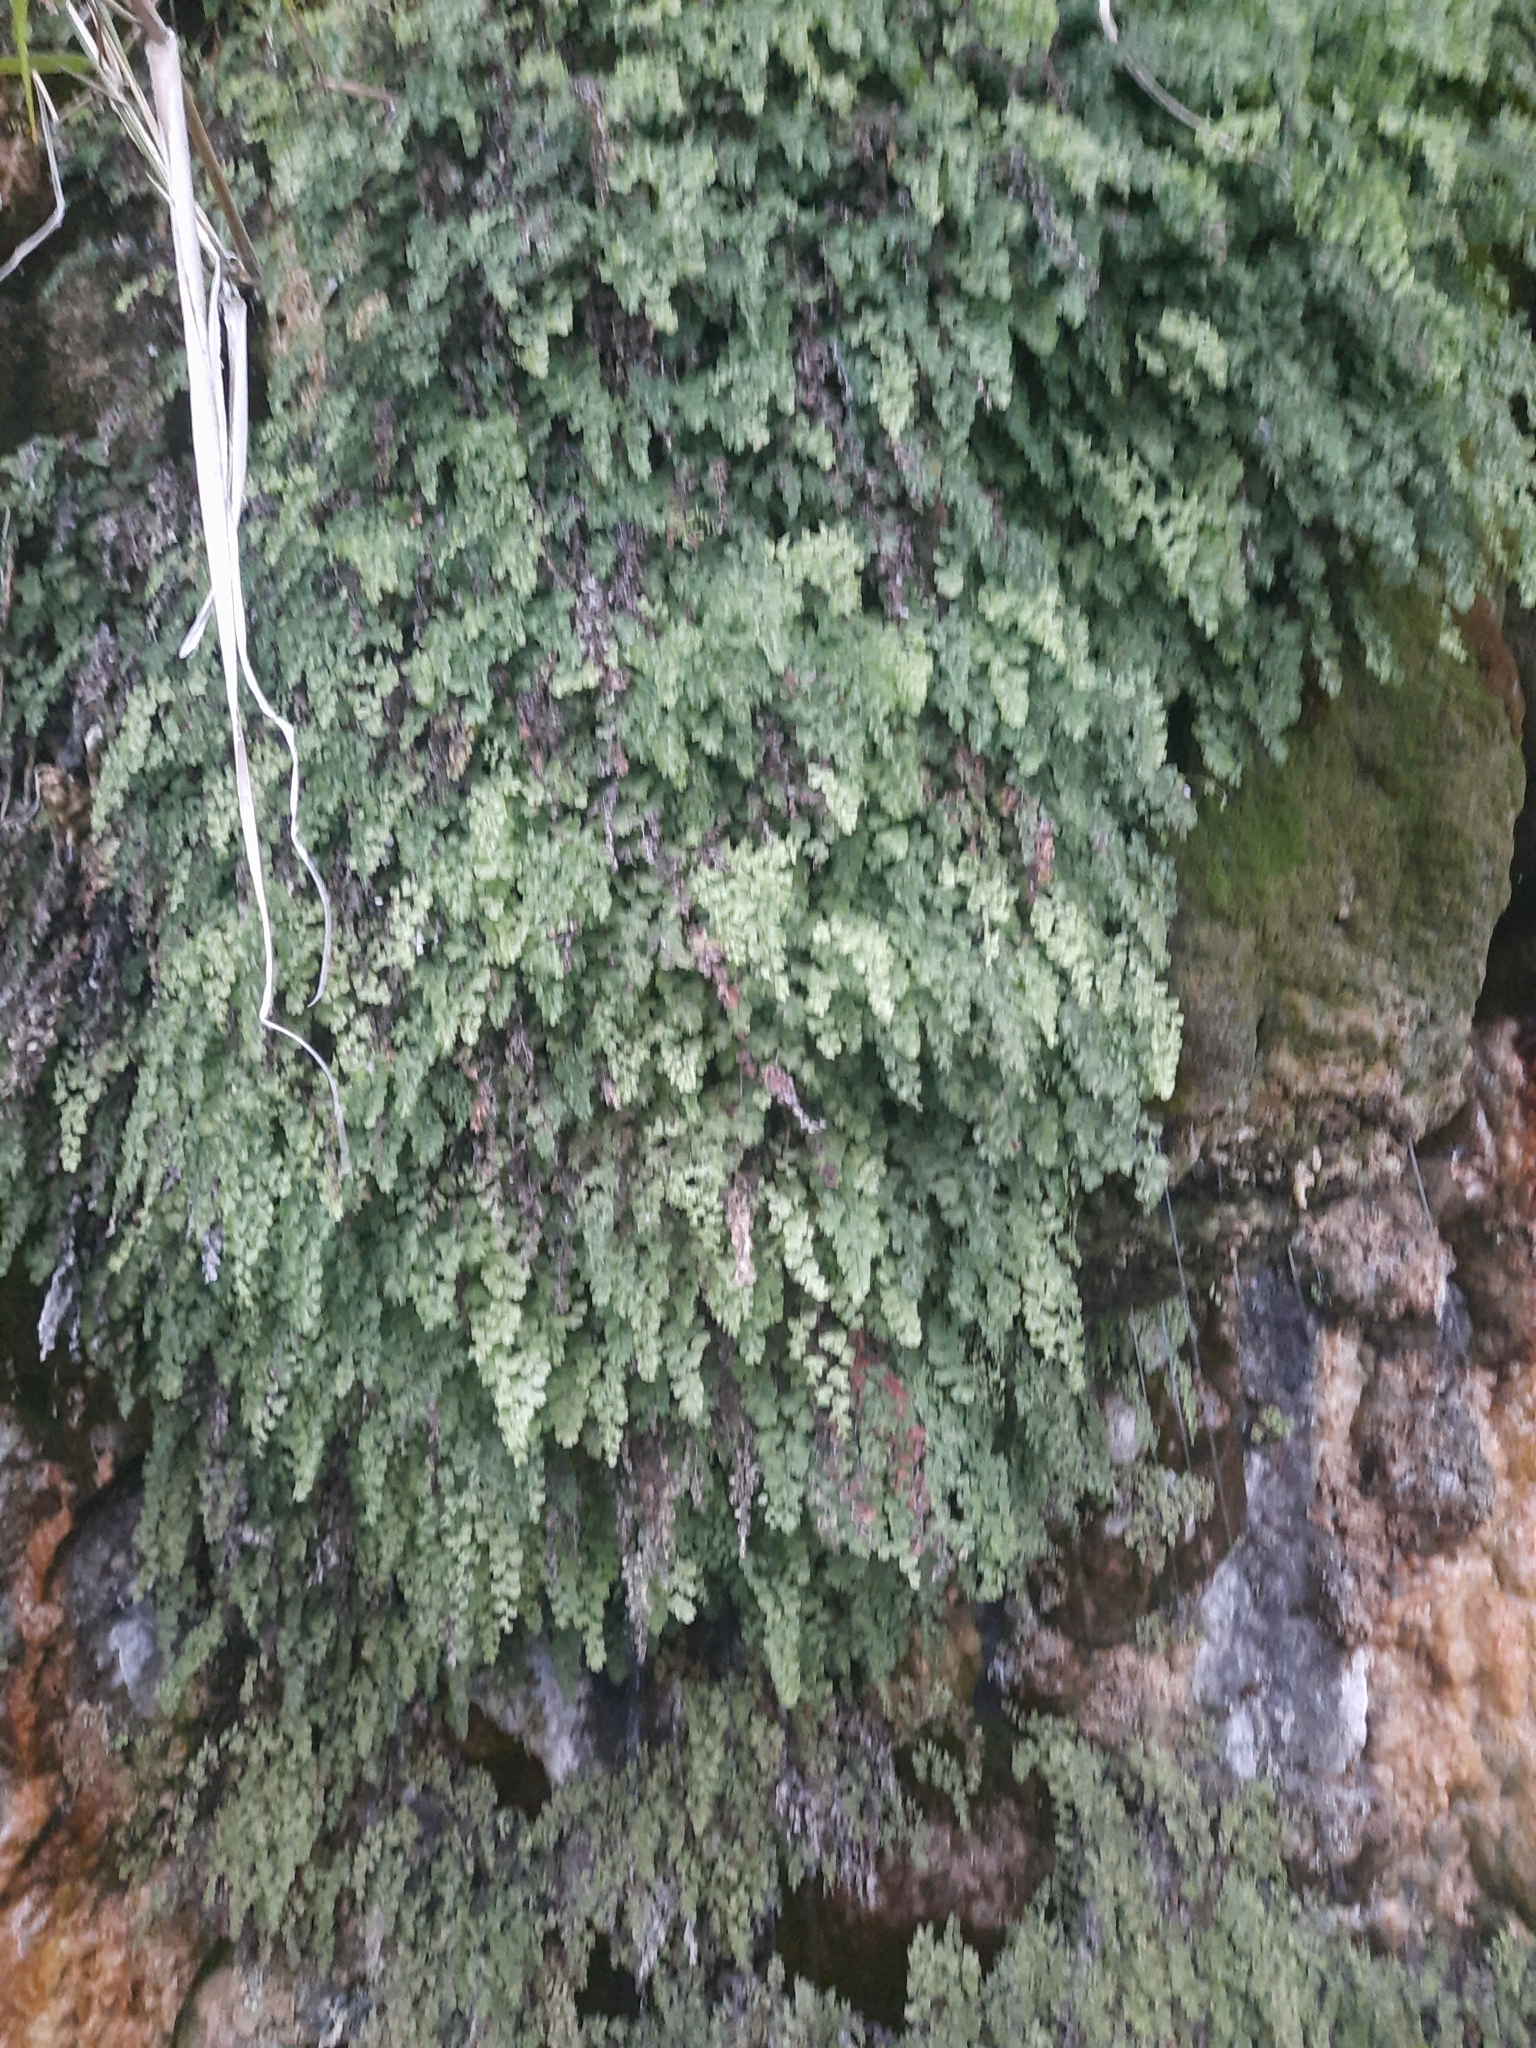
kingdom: Plantae
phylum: Tracheophyta
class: Polypodiopsida
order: Polypodiales
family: Pteridaceae
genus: Adiantum
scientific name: Adiantum capillus-veneris
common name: Maidenhair fern
